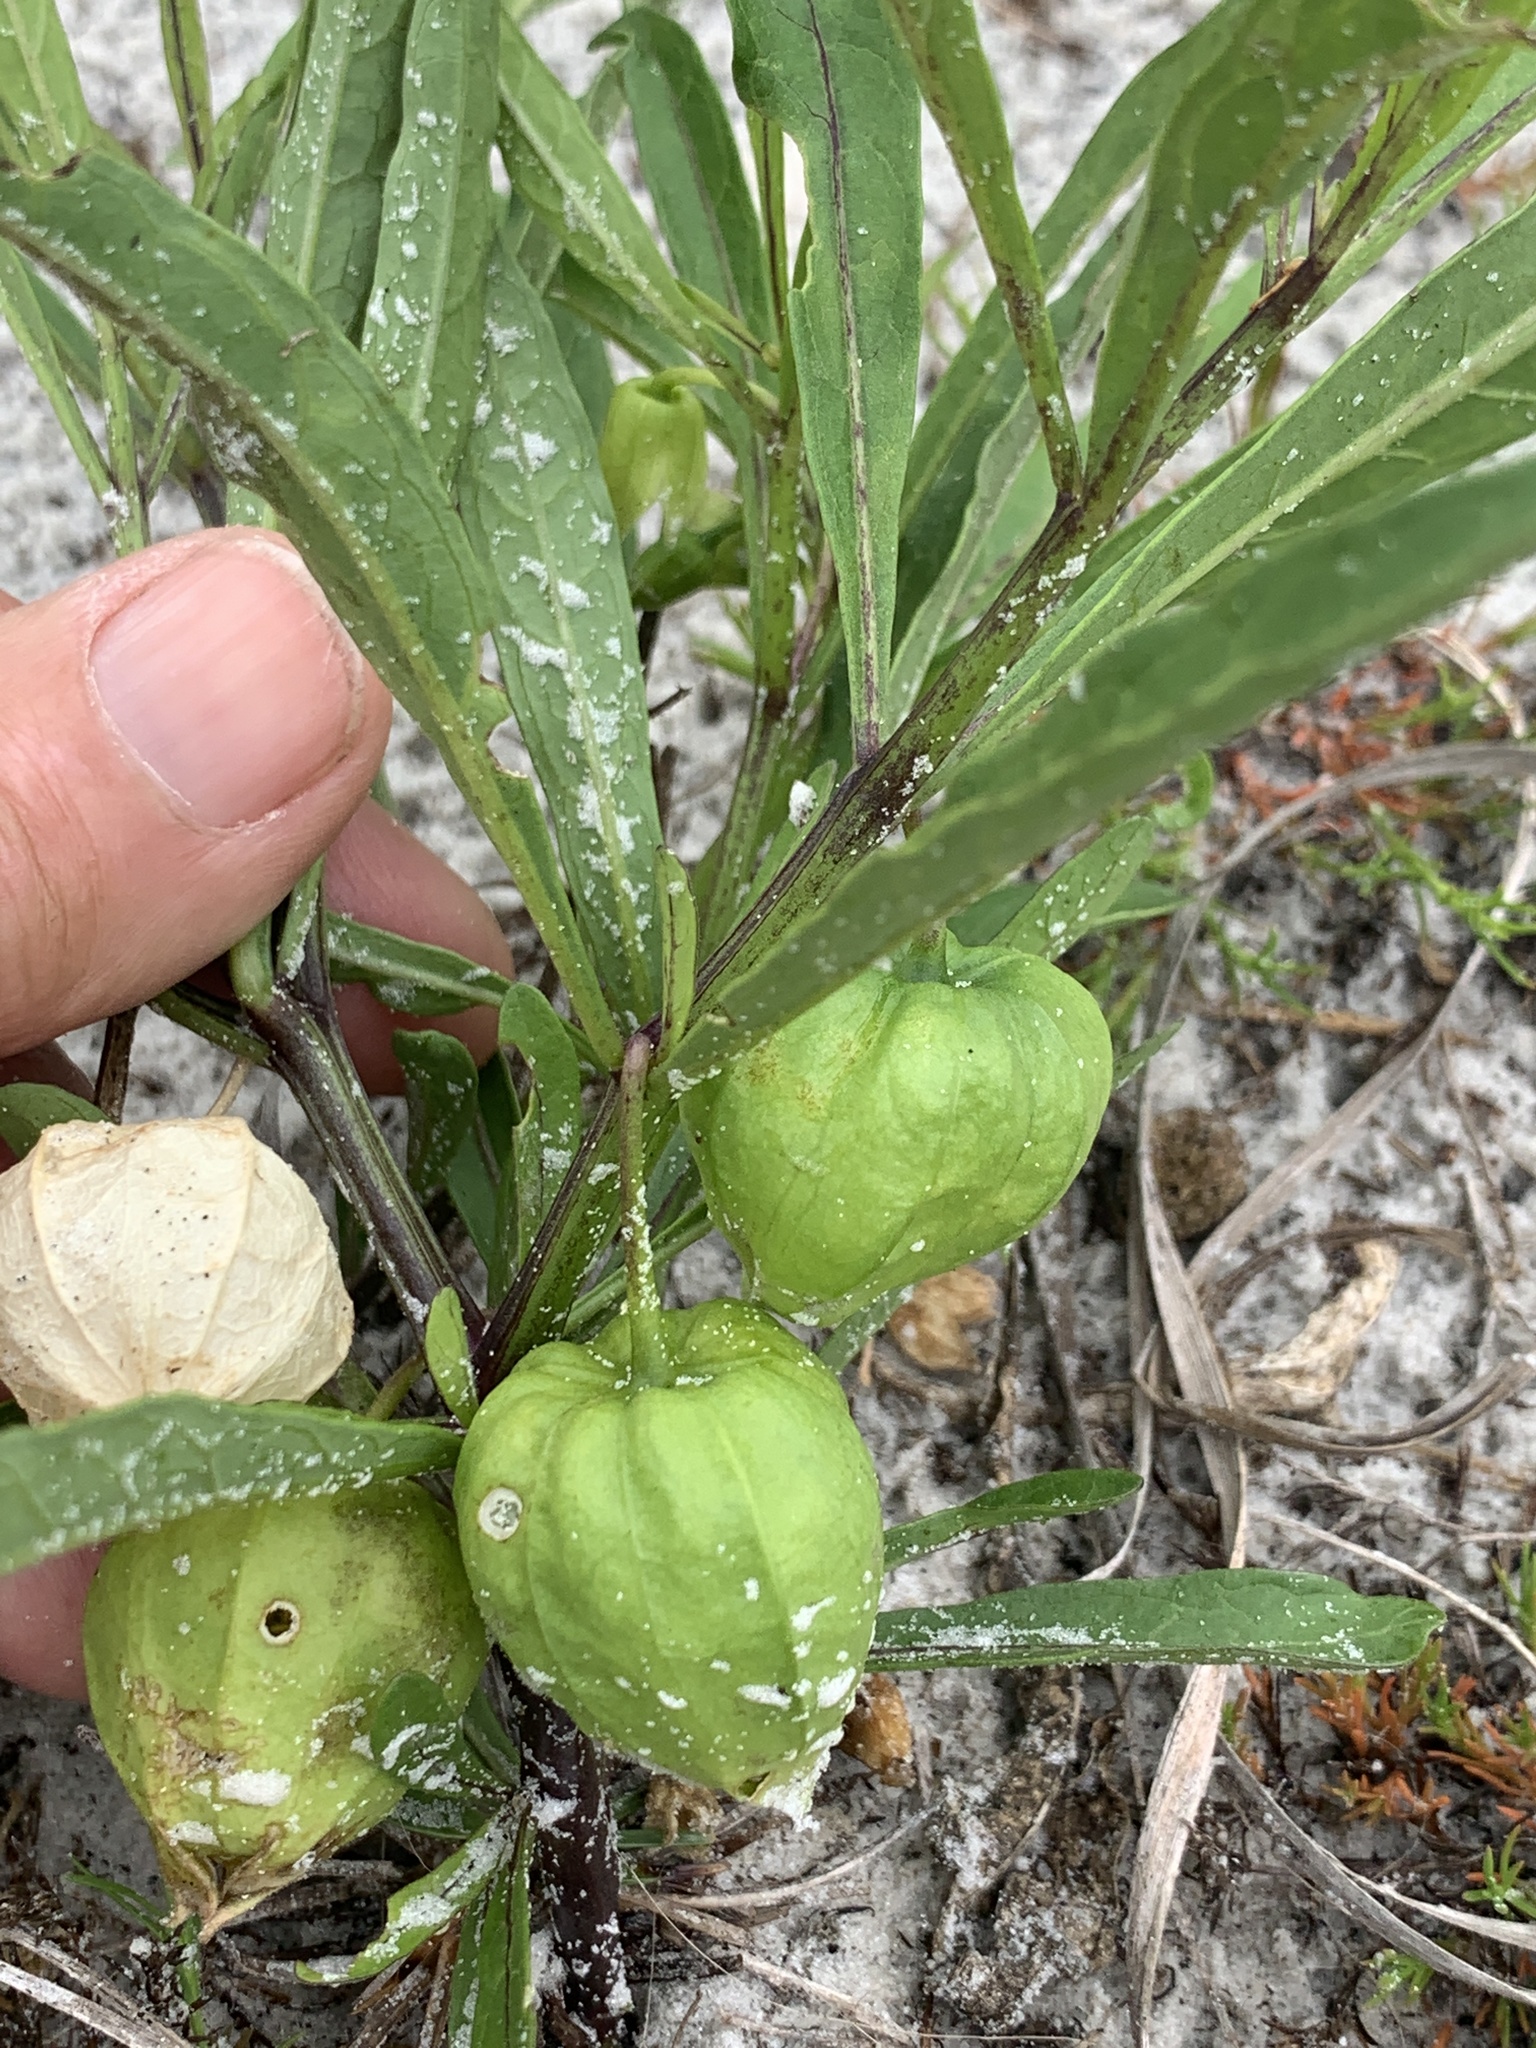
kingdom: Plantae
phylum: Tracheophyta
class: Magnoliopsida
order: Solanales
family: Solanaceae
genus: Physalis
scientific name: Physalis angustifolia
